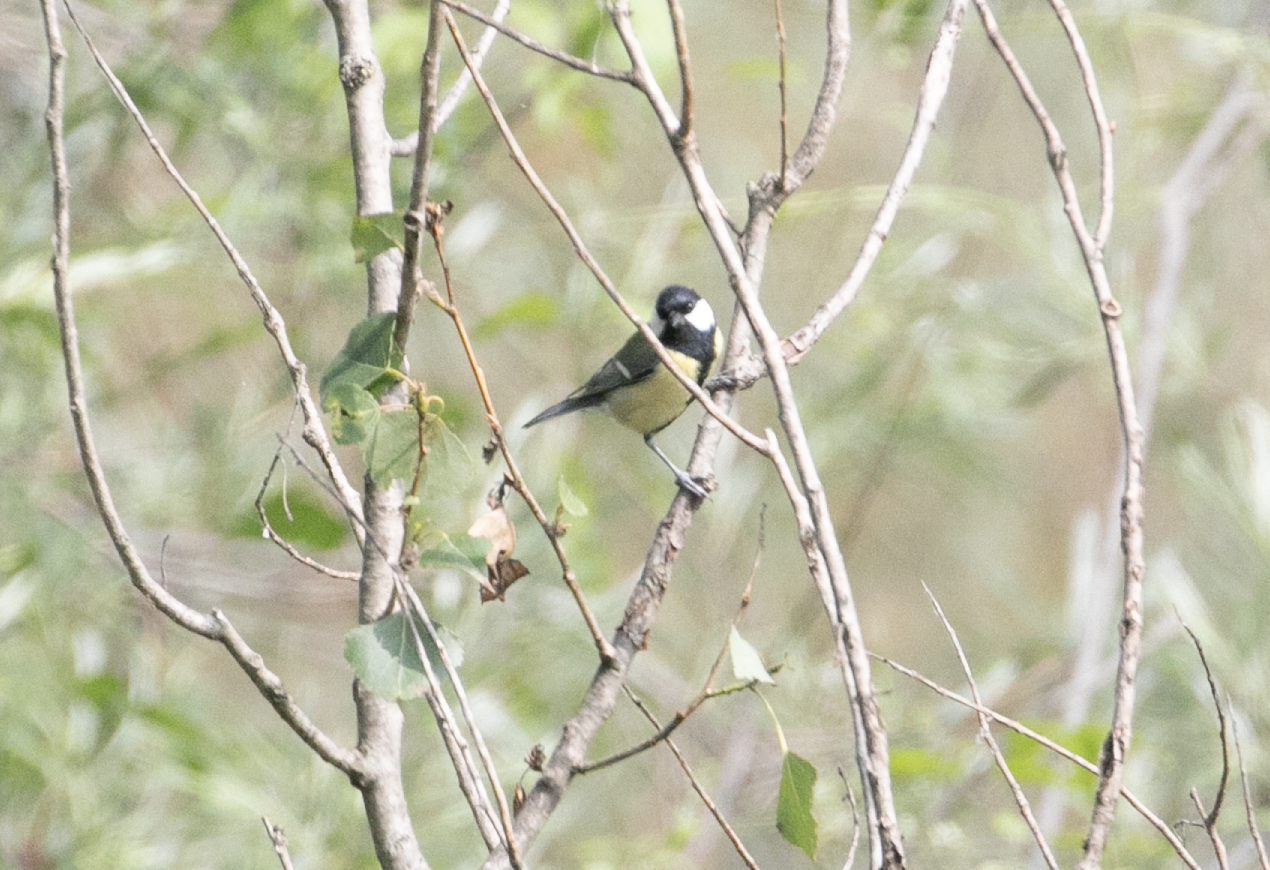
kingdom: Animalia
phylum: Chordata
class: Aves
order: Passeriformes
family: Paridae
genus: Parus
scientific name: Parus major
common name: Great tit
